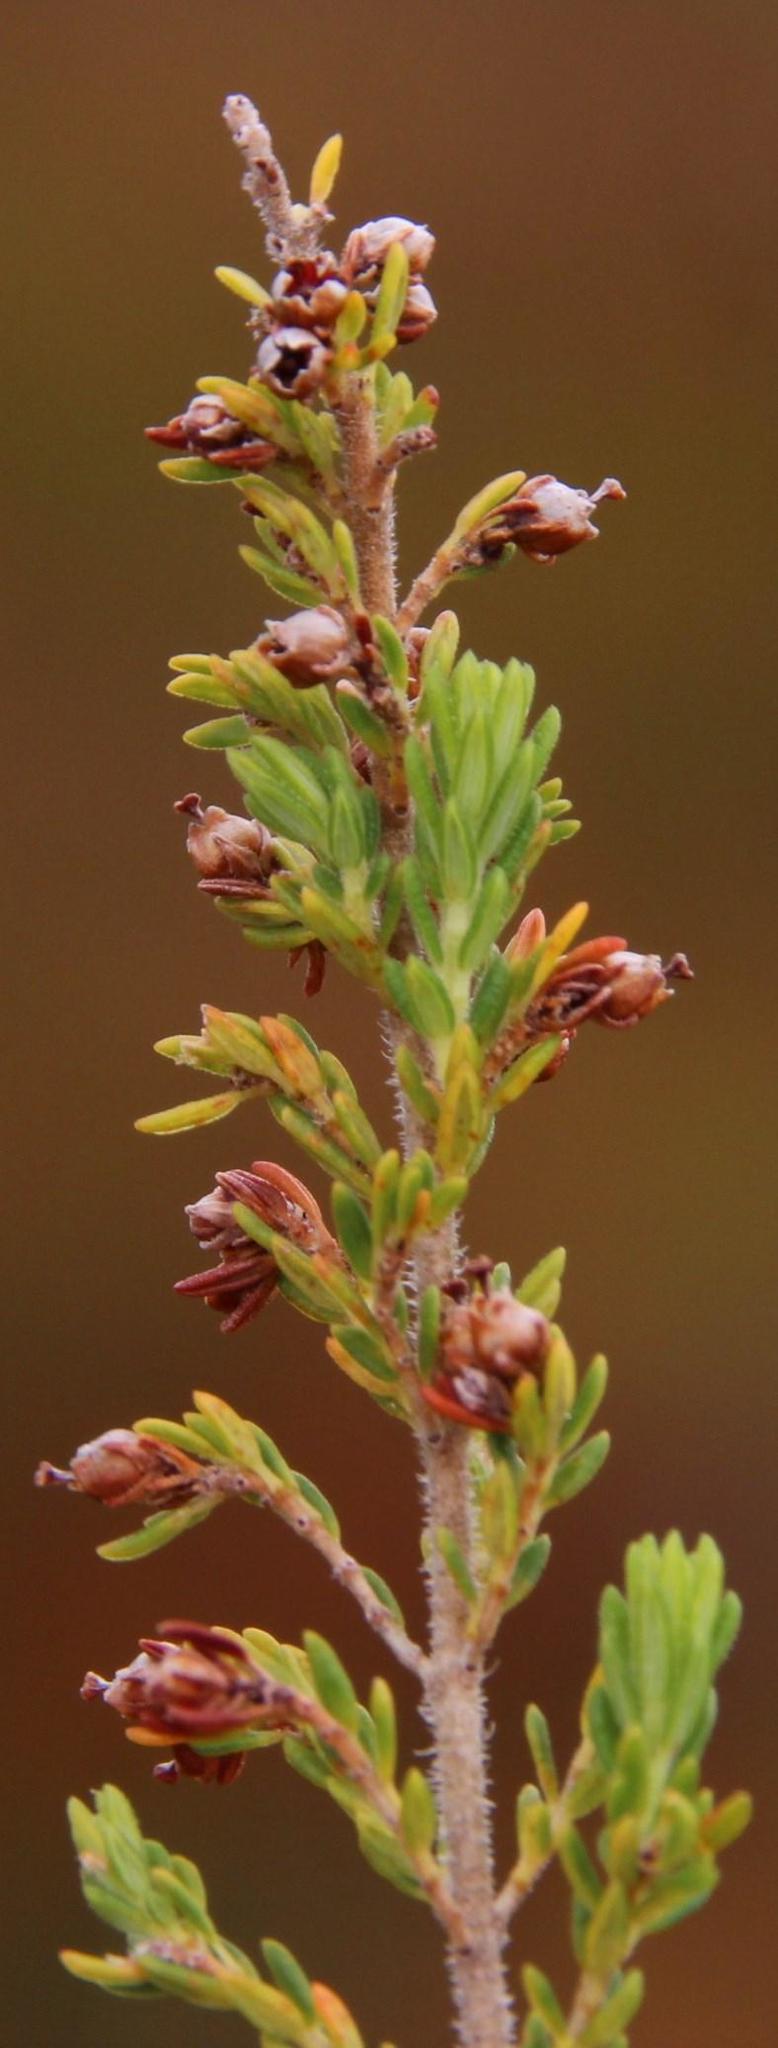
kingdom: Plantae
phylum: Tracheophyta
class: Magnoliopsida
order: Ericales
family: Ericaceae
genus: Erica
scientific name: Erica hispidula
